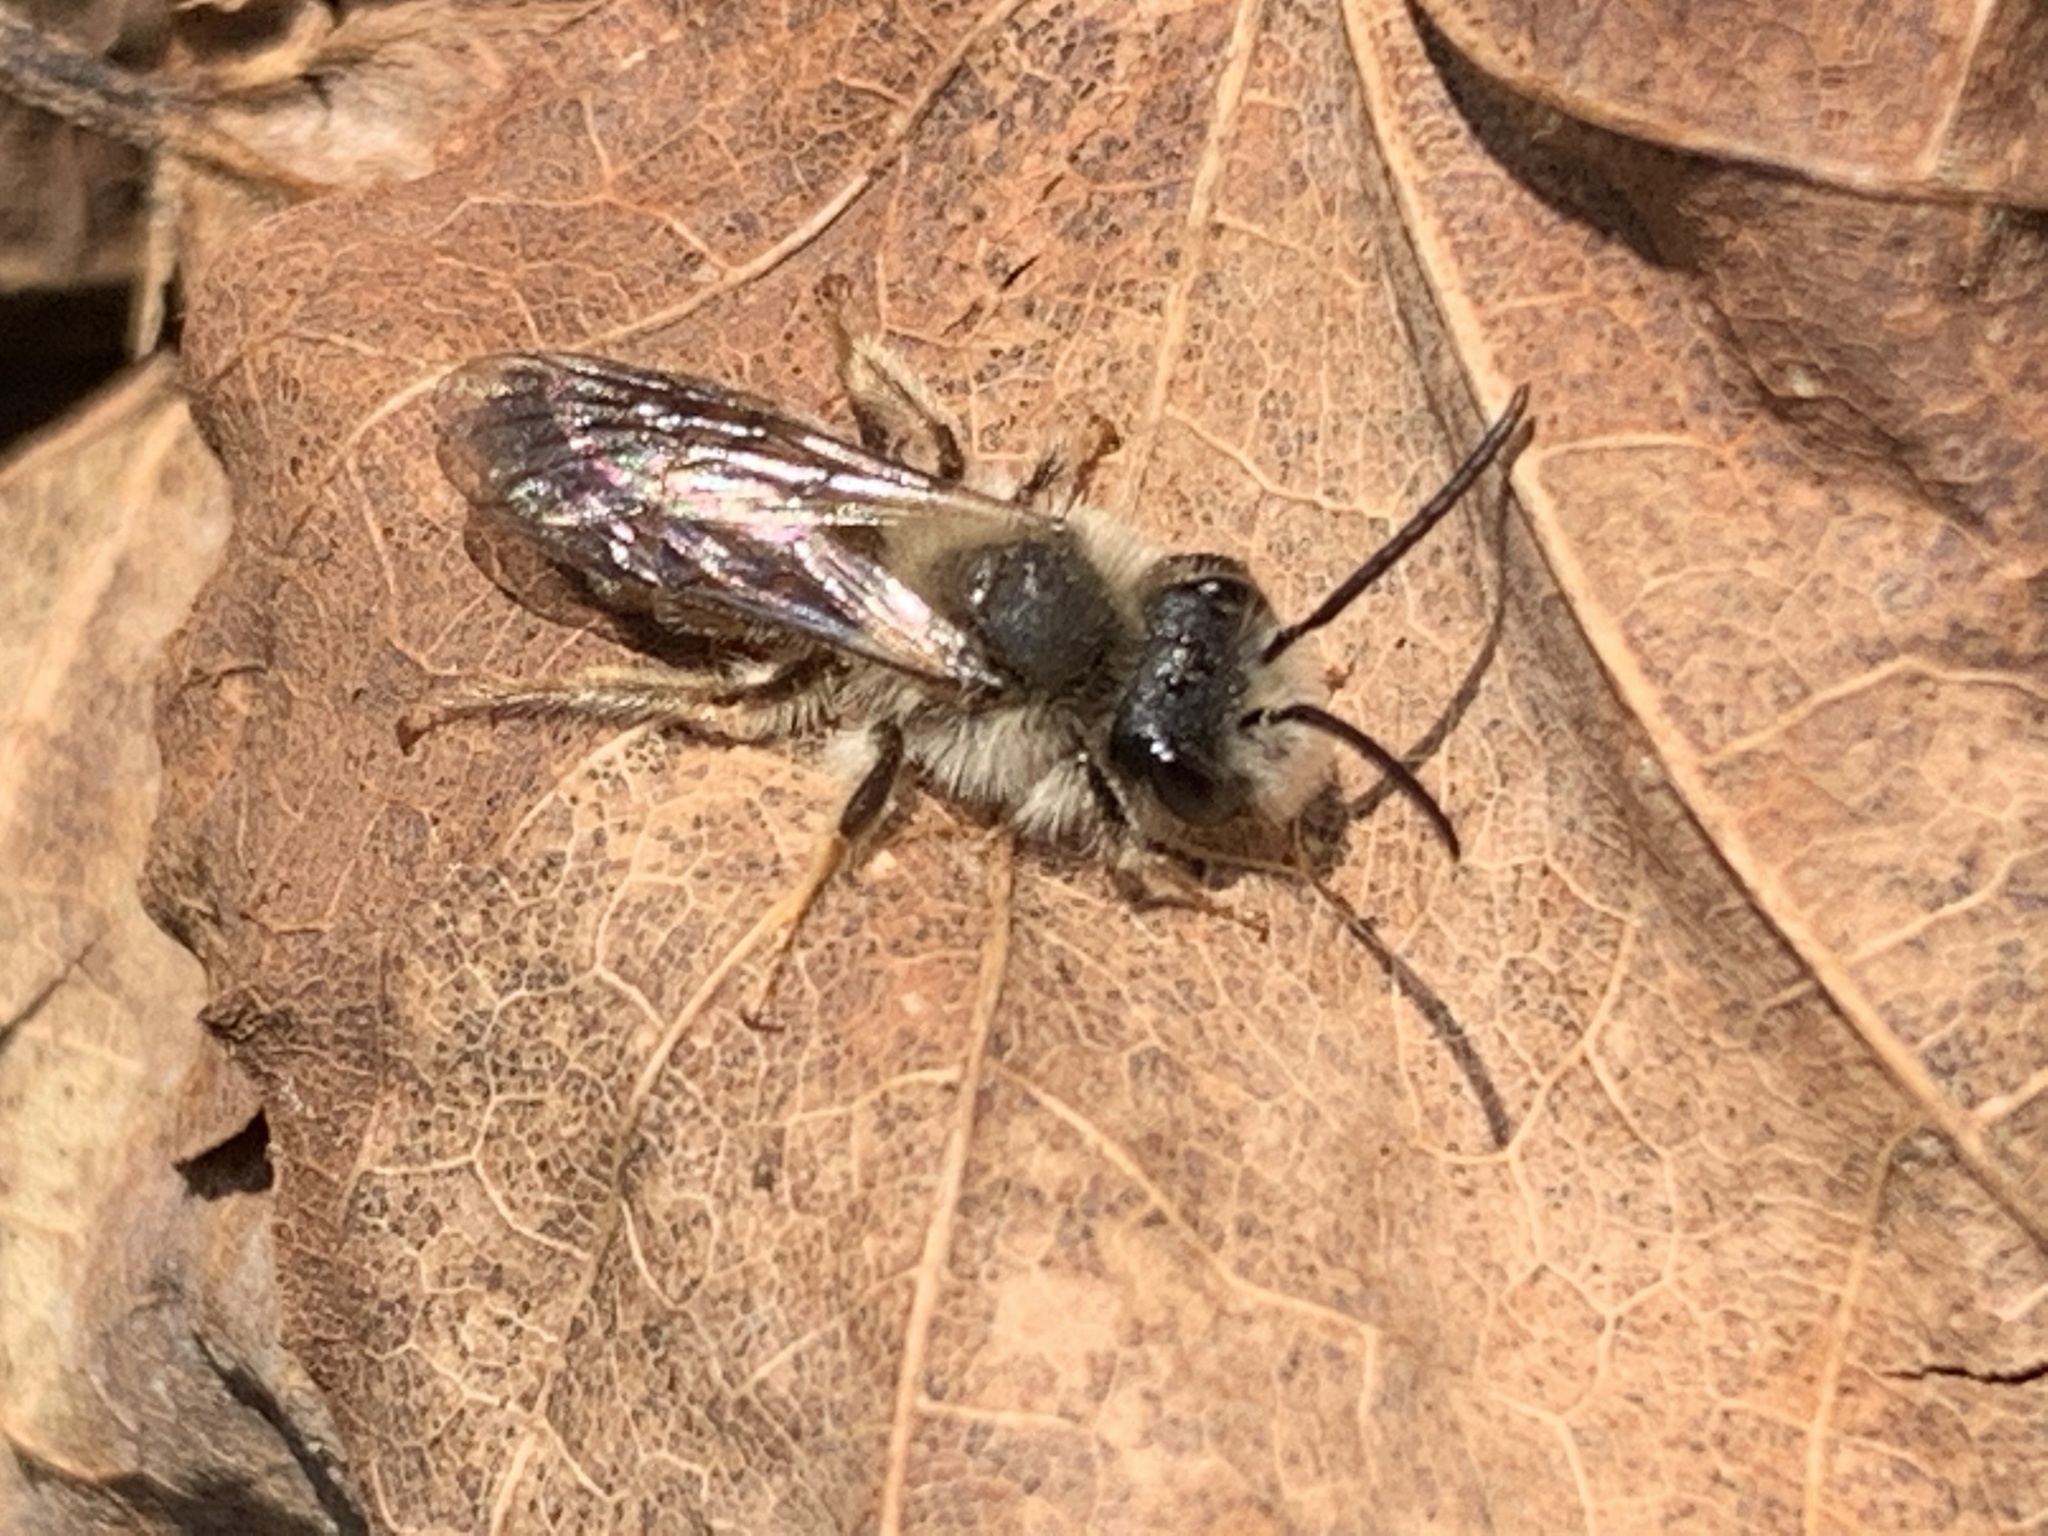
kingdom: Animalia
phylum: Arthropoda
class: Insecta
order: Hymenoptera
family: Andrenidae
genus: Andrena
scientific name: Andrena
